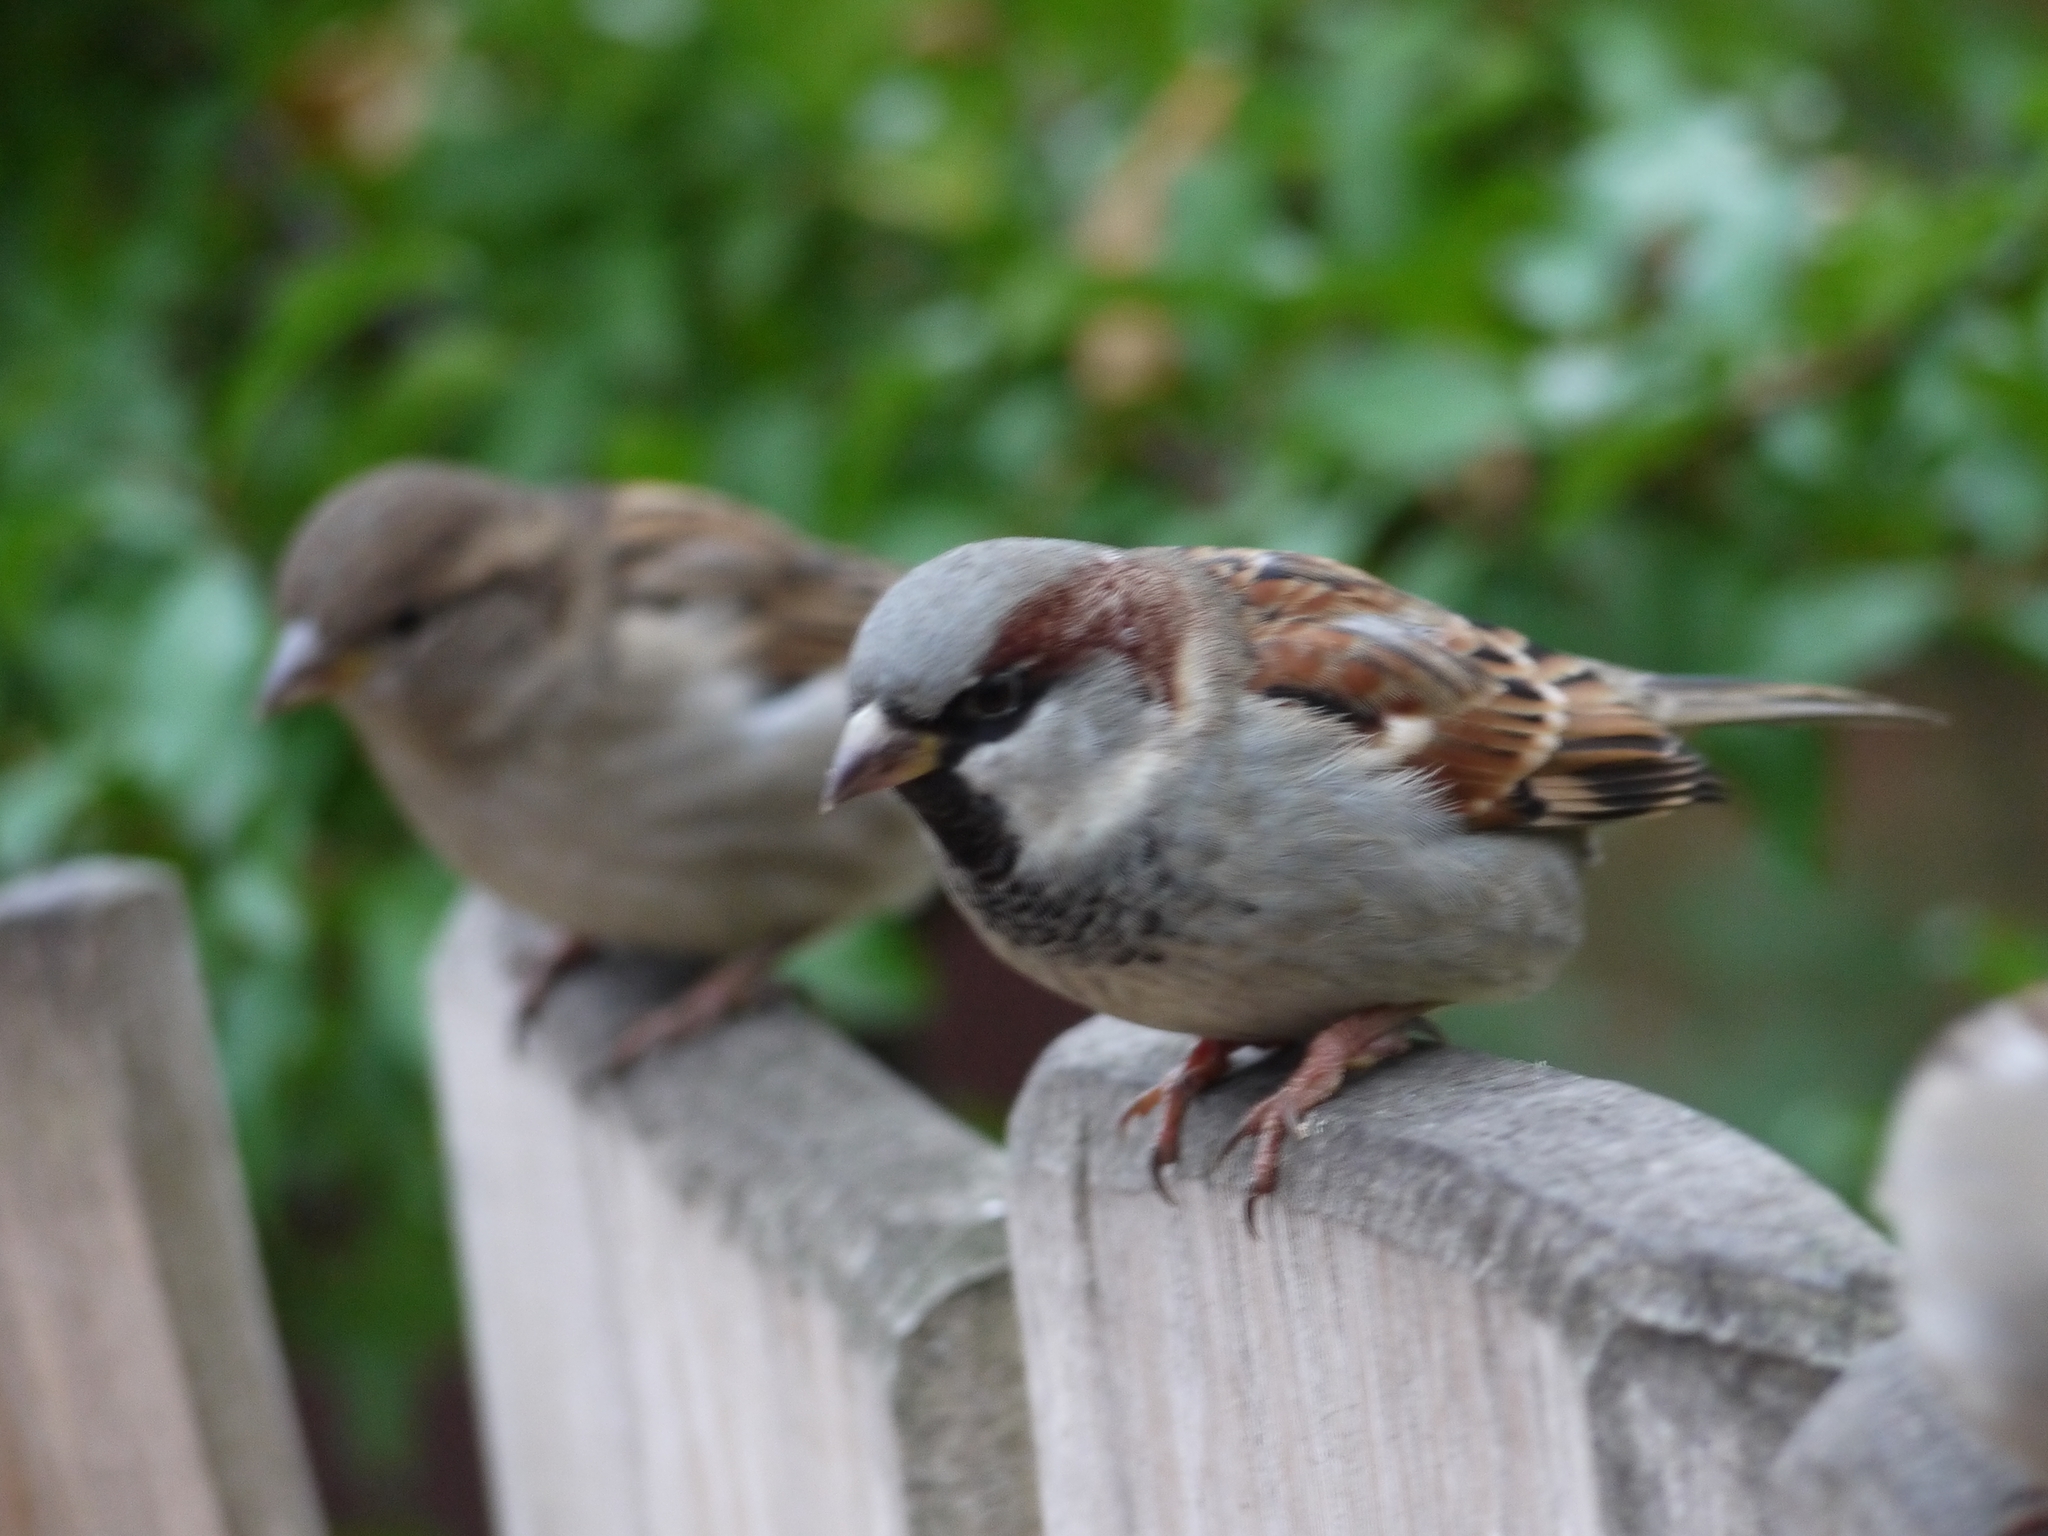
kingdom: Animalia
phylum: Chordata
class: Aves
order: Passeriformes
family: Passeridae
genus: Passer
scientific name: Passer domesticus
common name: House sparrow
